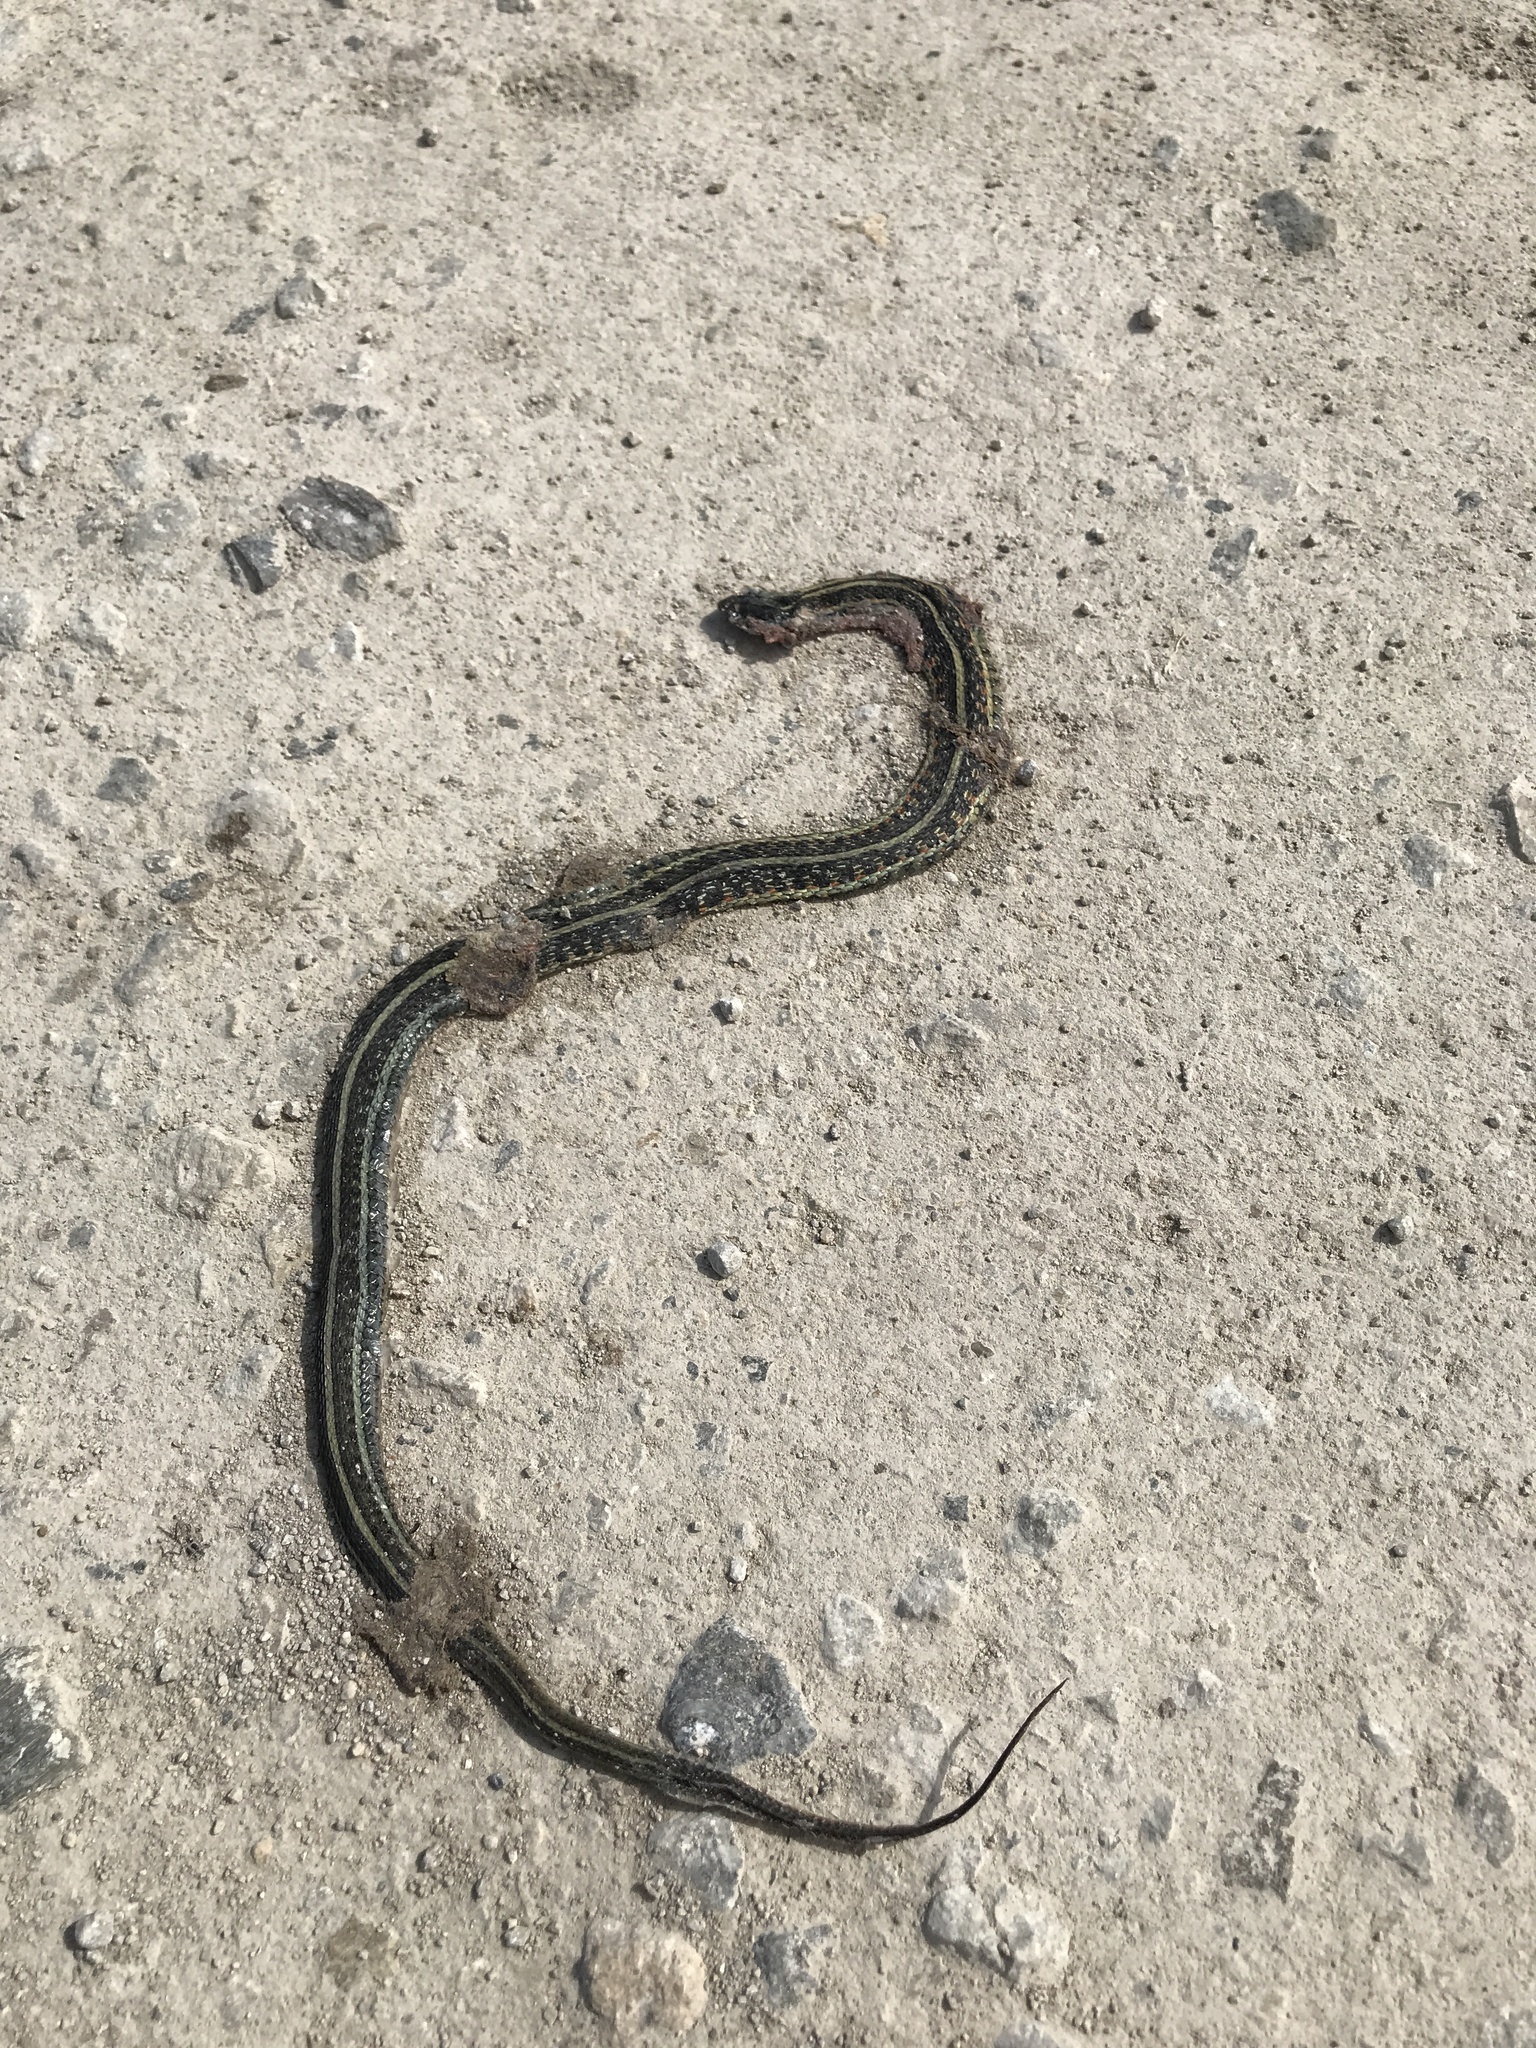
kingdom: Animalia
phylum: Chordata
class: Squamata
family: Colubridae
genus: Thamnophis
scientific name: Thamnophis sirtalis
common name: Common garter snake
